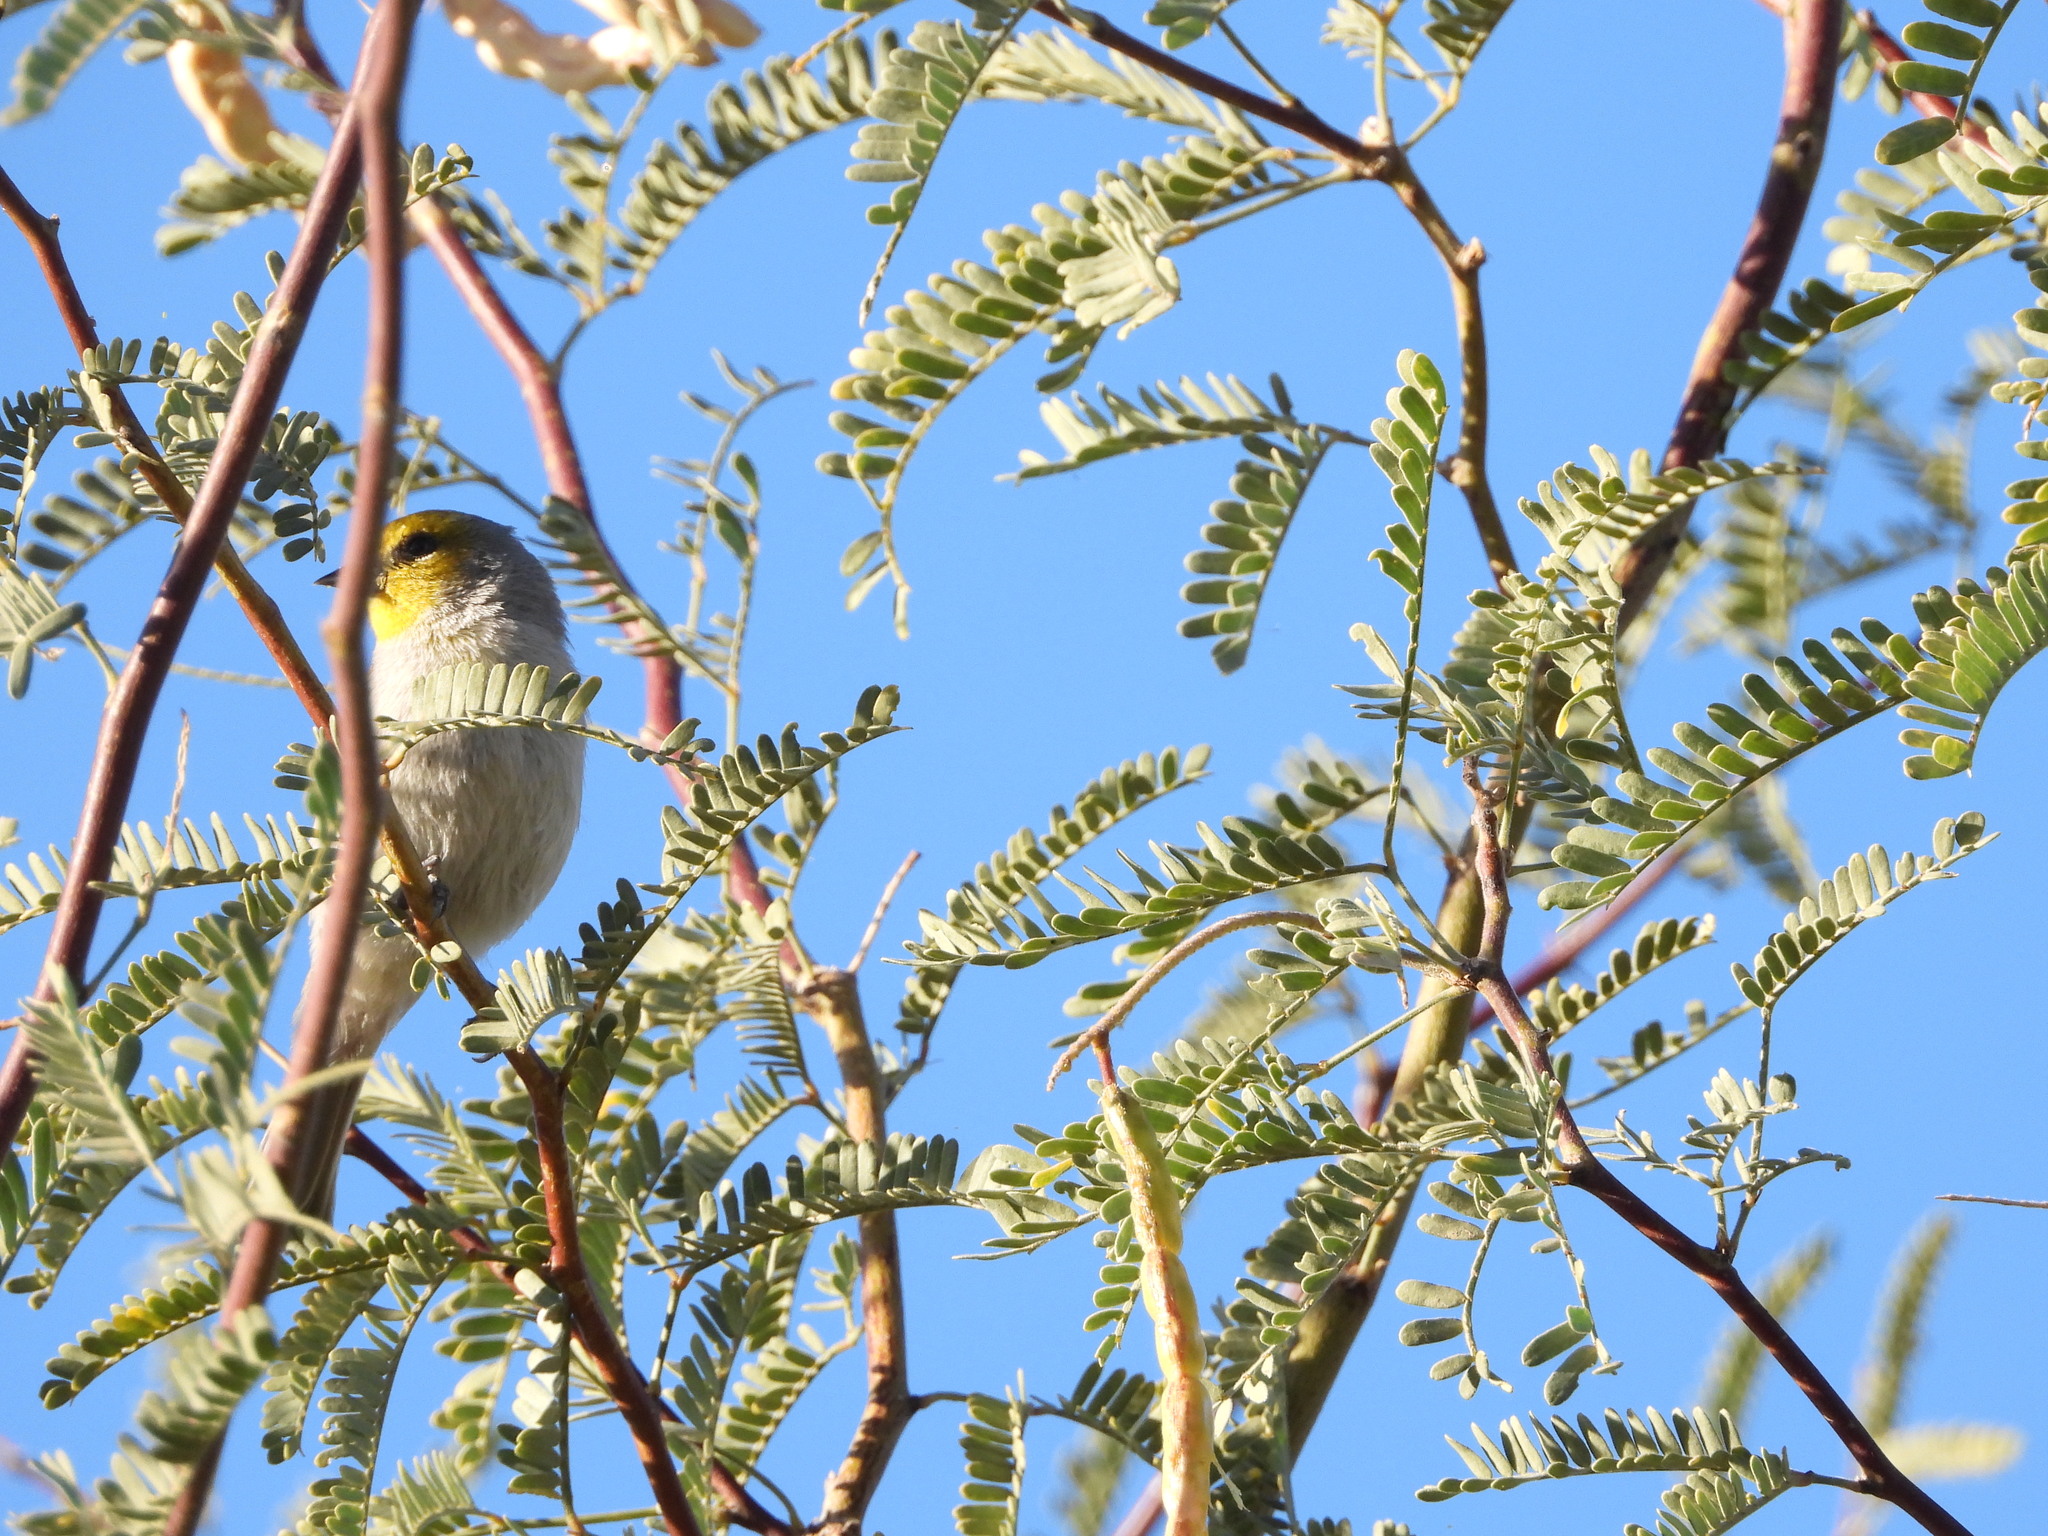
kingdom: Animalia
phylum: Chordata
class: Aves
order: Passeriformes
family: Remizidae
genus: Auriparus
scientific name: Auriparus flaviceps
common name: Verdin
